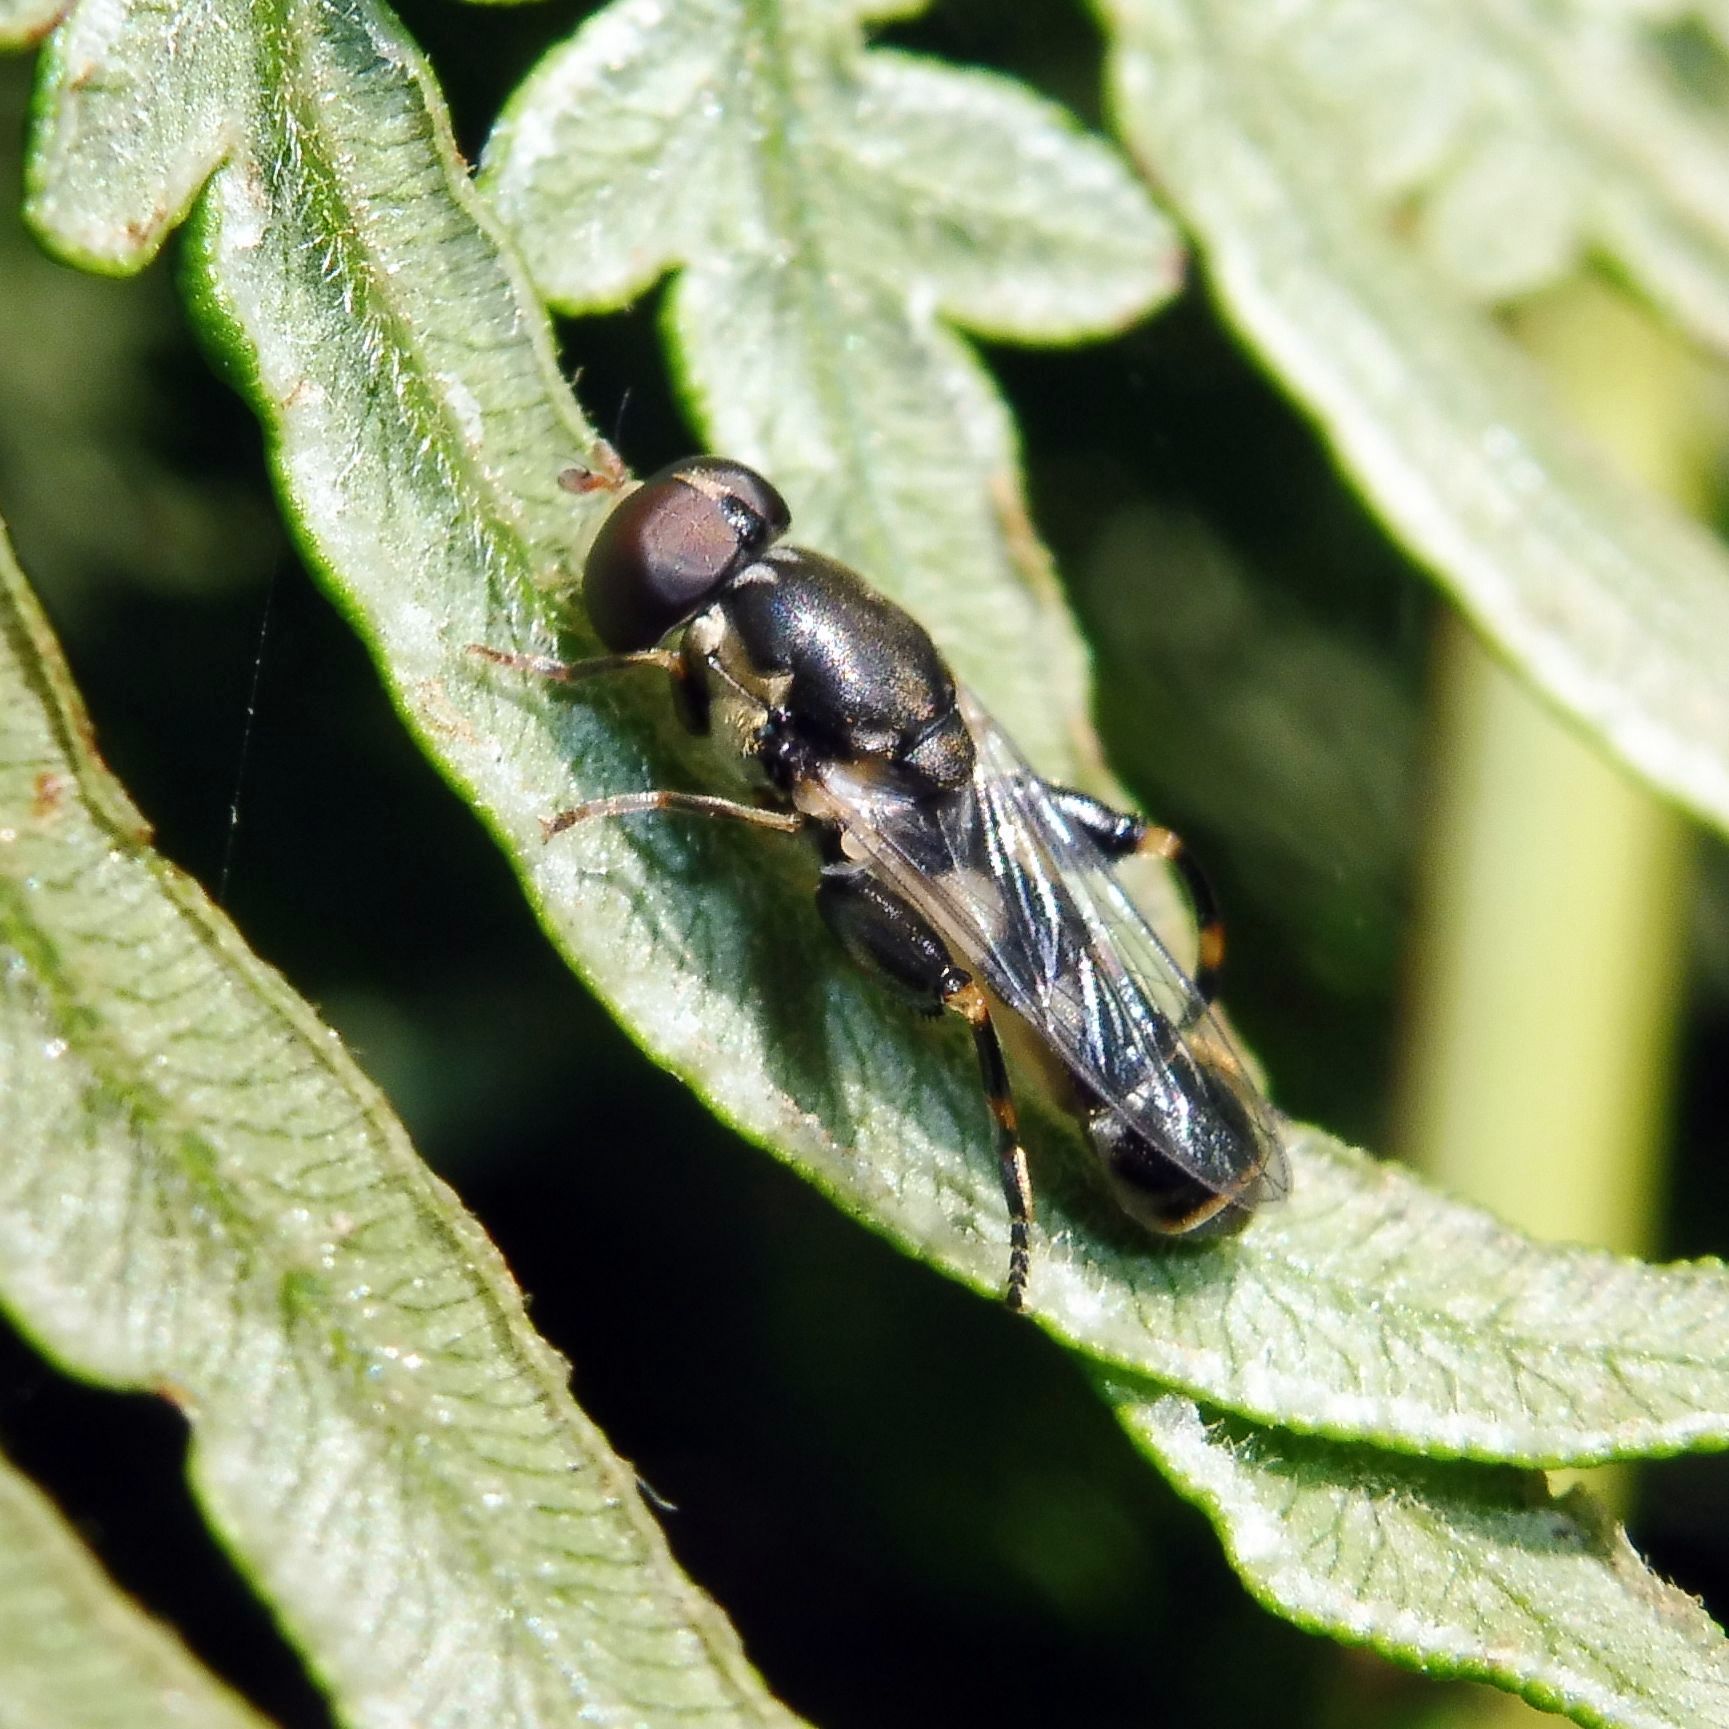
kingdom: Animalia
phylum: Arthropoda
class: Insecta
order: Diptera
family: Syrphidae
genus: Syritta
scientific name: Syritta pipiens
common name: Hover fly
